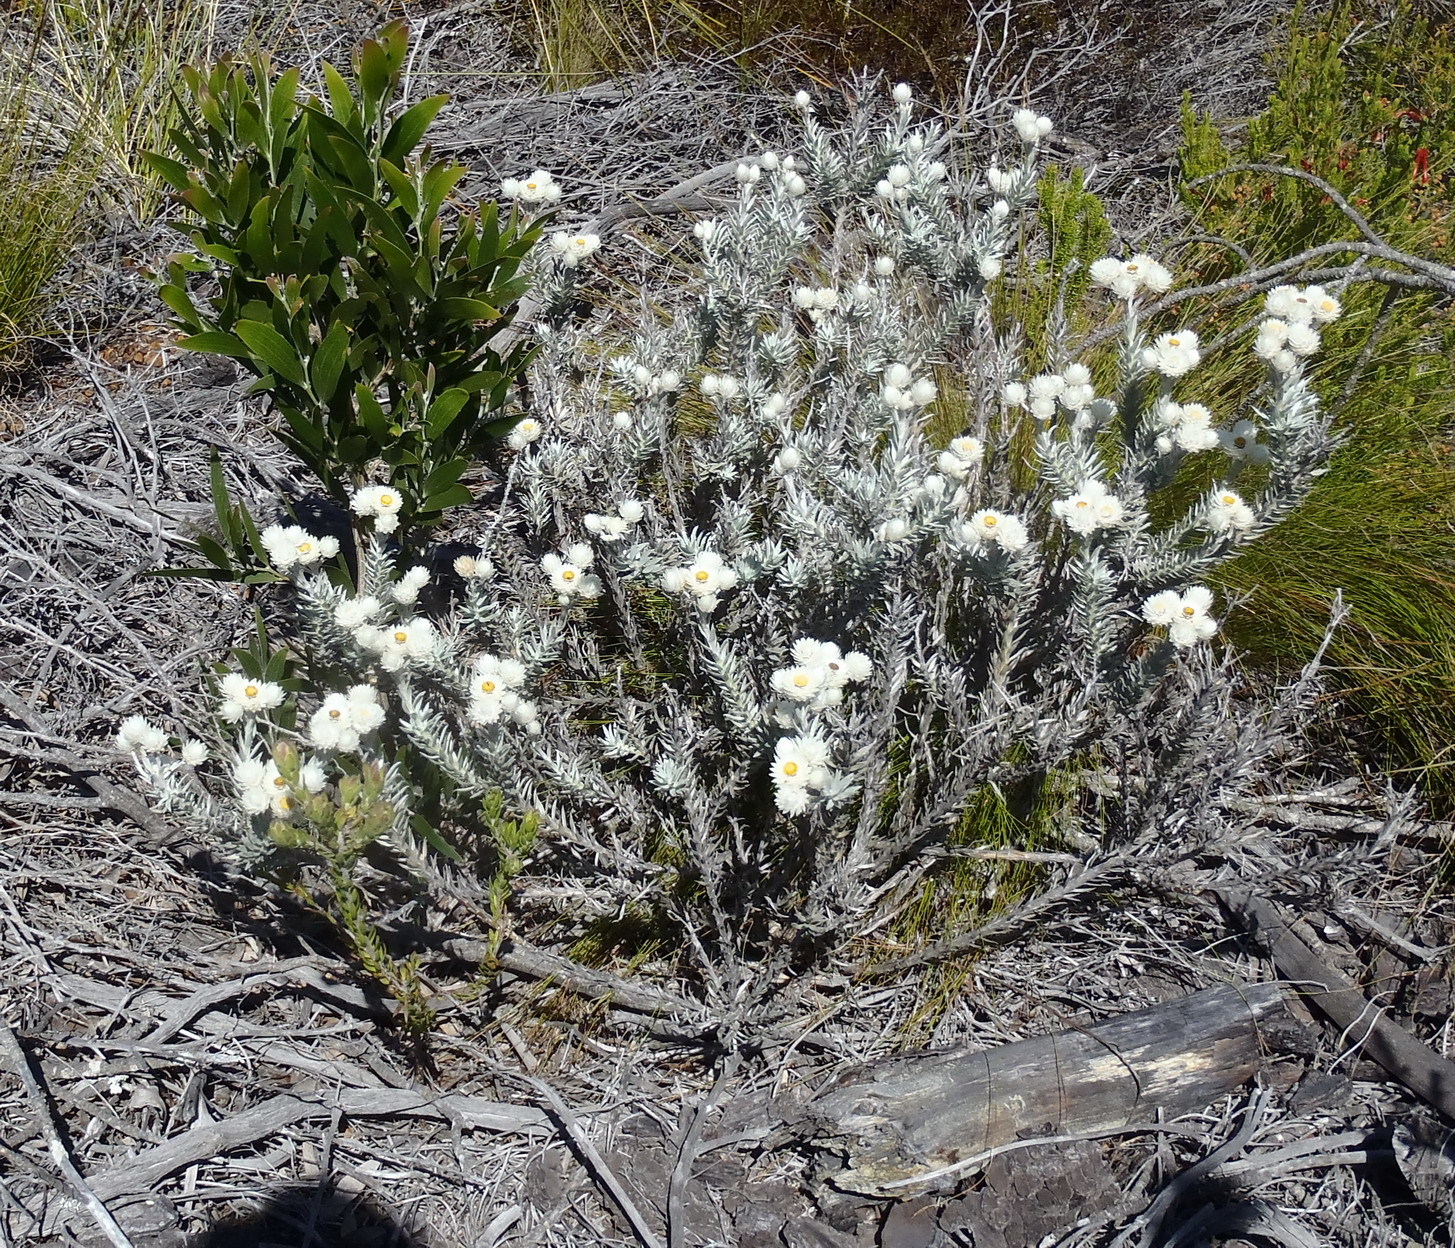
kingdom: Plantae
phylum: Tracheophyta
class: Magnoliopsida
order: Asterales
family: Asteraceae
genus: Achyranthemum
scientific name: Achyranthemum paniculatum
